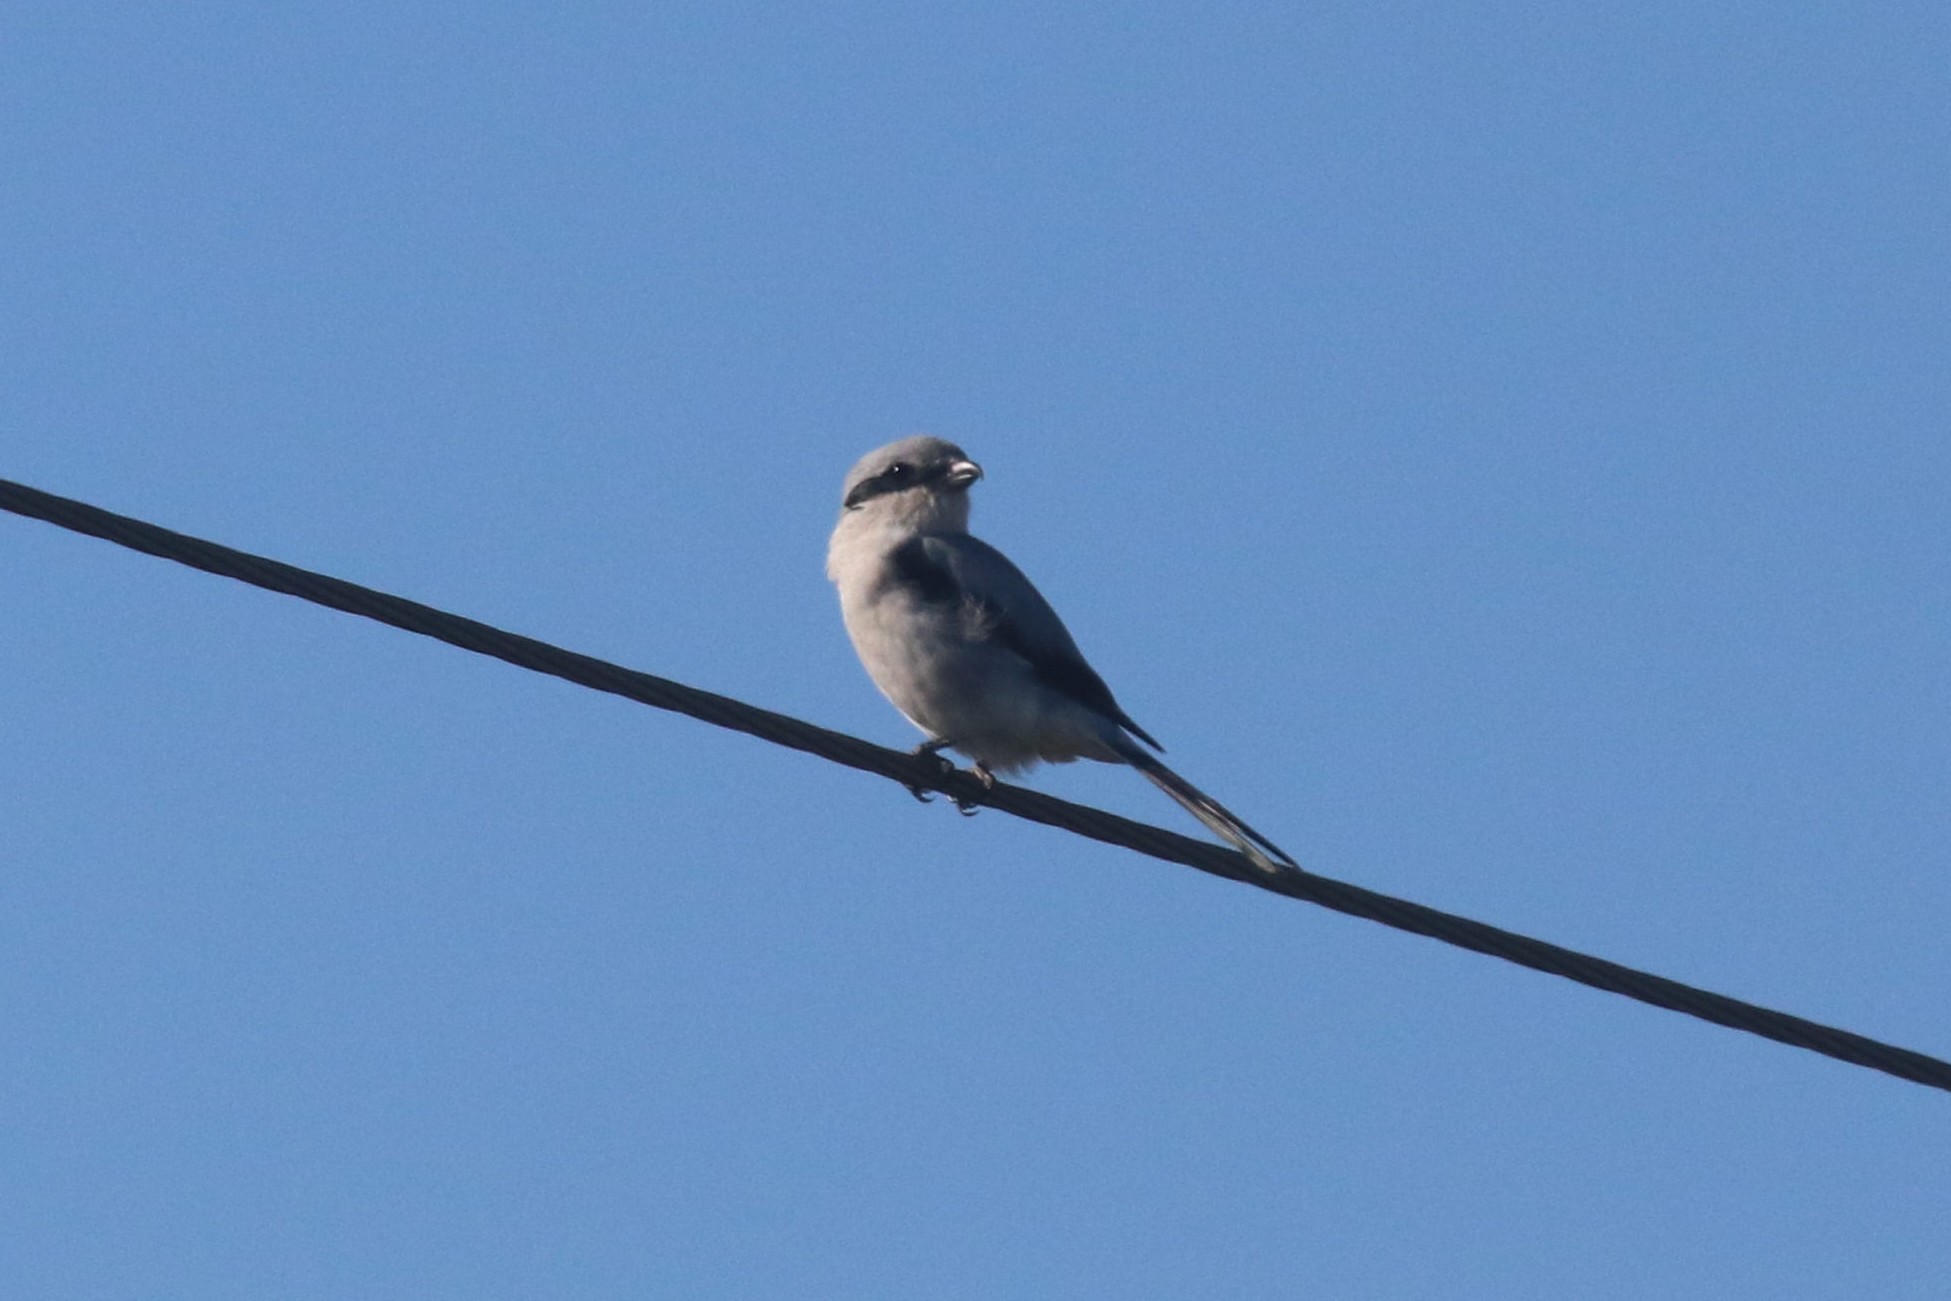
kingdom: Animalia
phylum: Chordata
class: Aves
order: Passeriformes
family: Laniidae
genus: Lanius
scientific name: Lanius excubitor
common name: Great grey shrike
